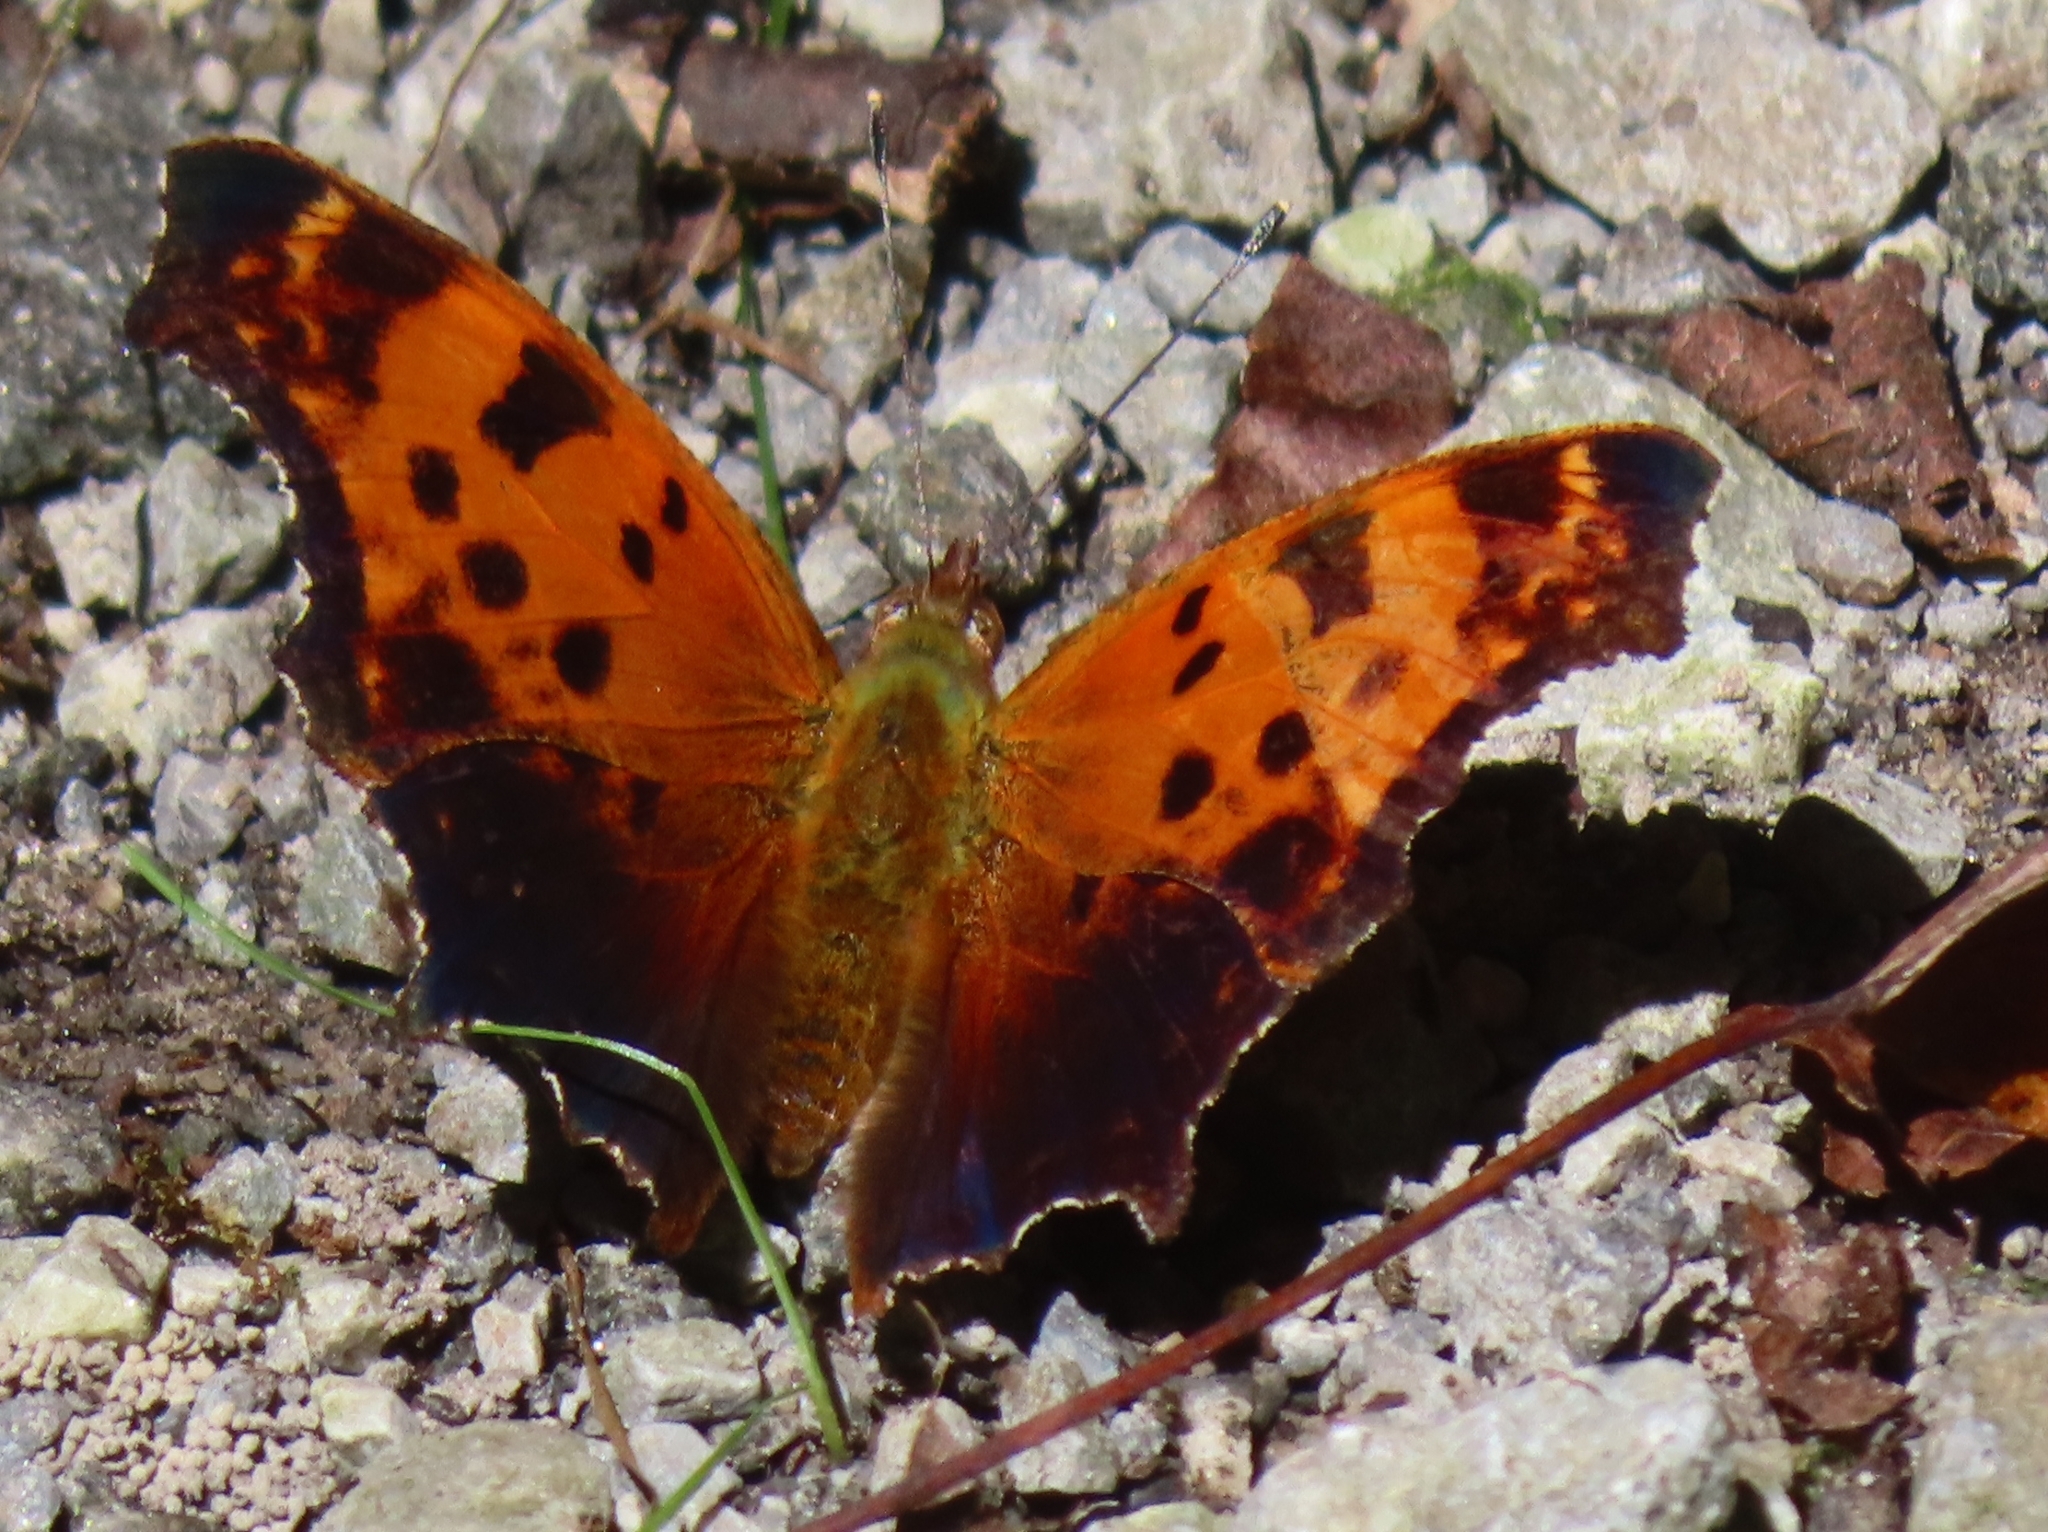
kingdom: Animalia
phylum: Arthropoda
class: Insecta
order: Lepidoptera
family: Nymphalidae
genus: Polygonia
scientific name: Polygonia comma
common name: Eastern comma
